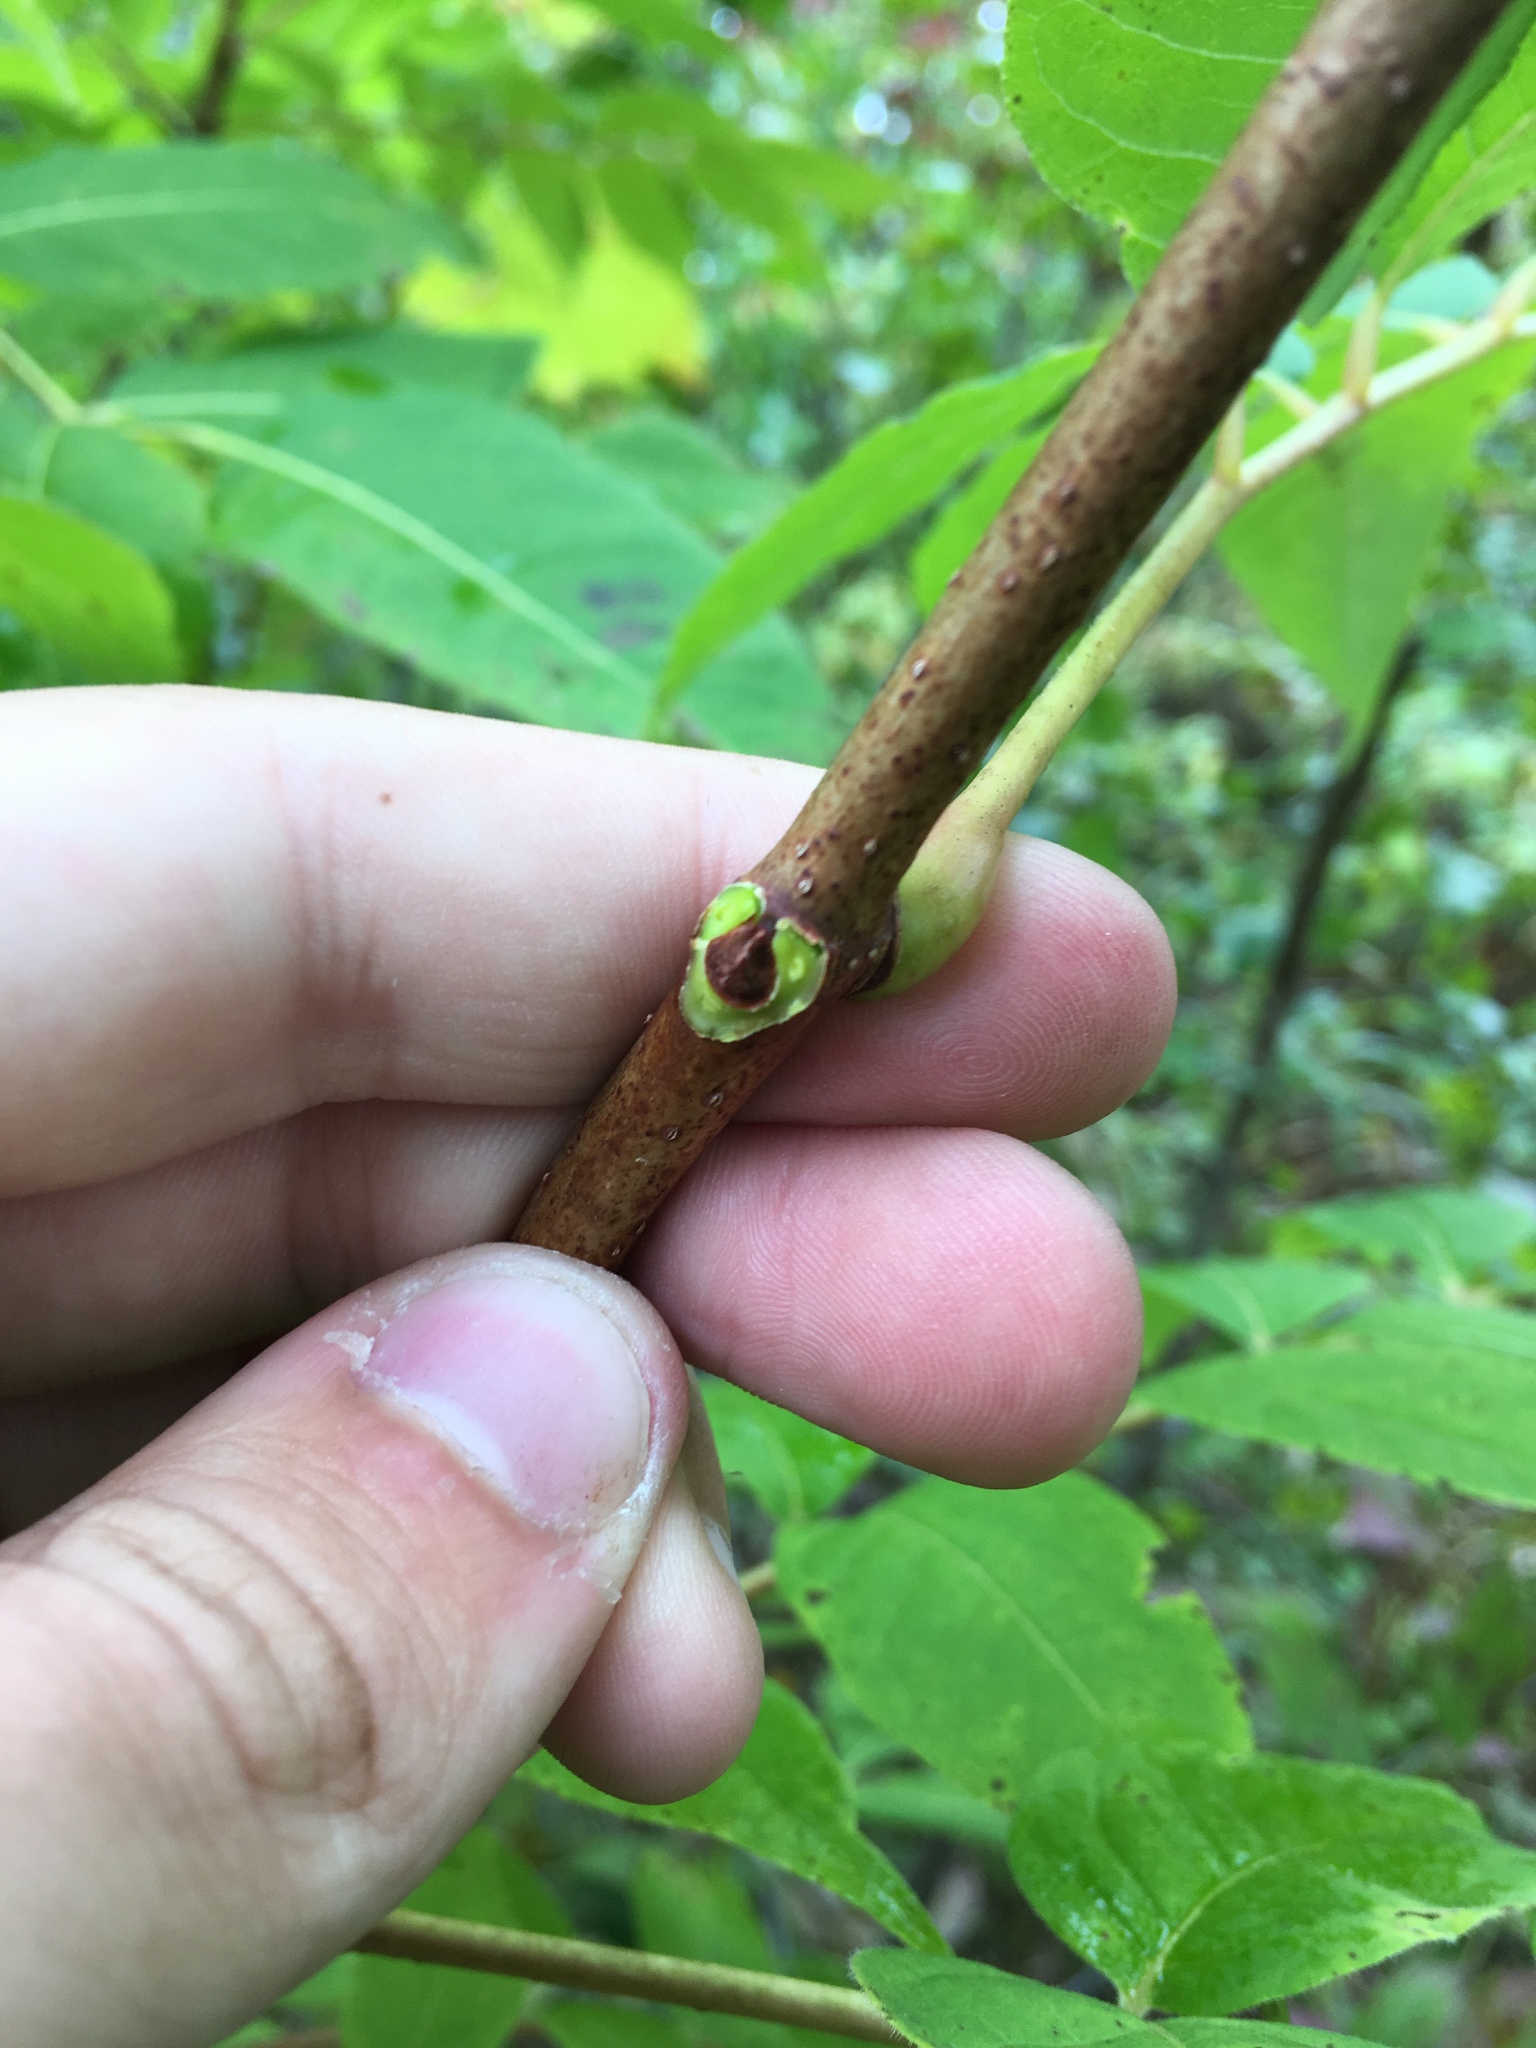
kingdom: Plantae
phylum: Tracheophyta
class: Magnoliopsida
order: Sapindales
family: Rutaceae
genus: Phellodendron
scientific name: Phellodendron amurense
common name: Amur corktree
